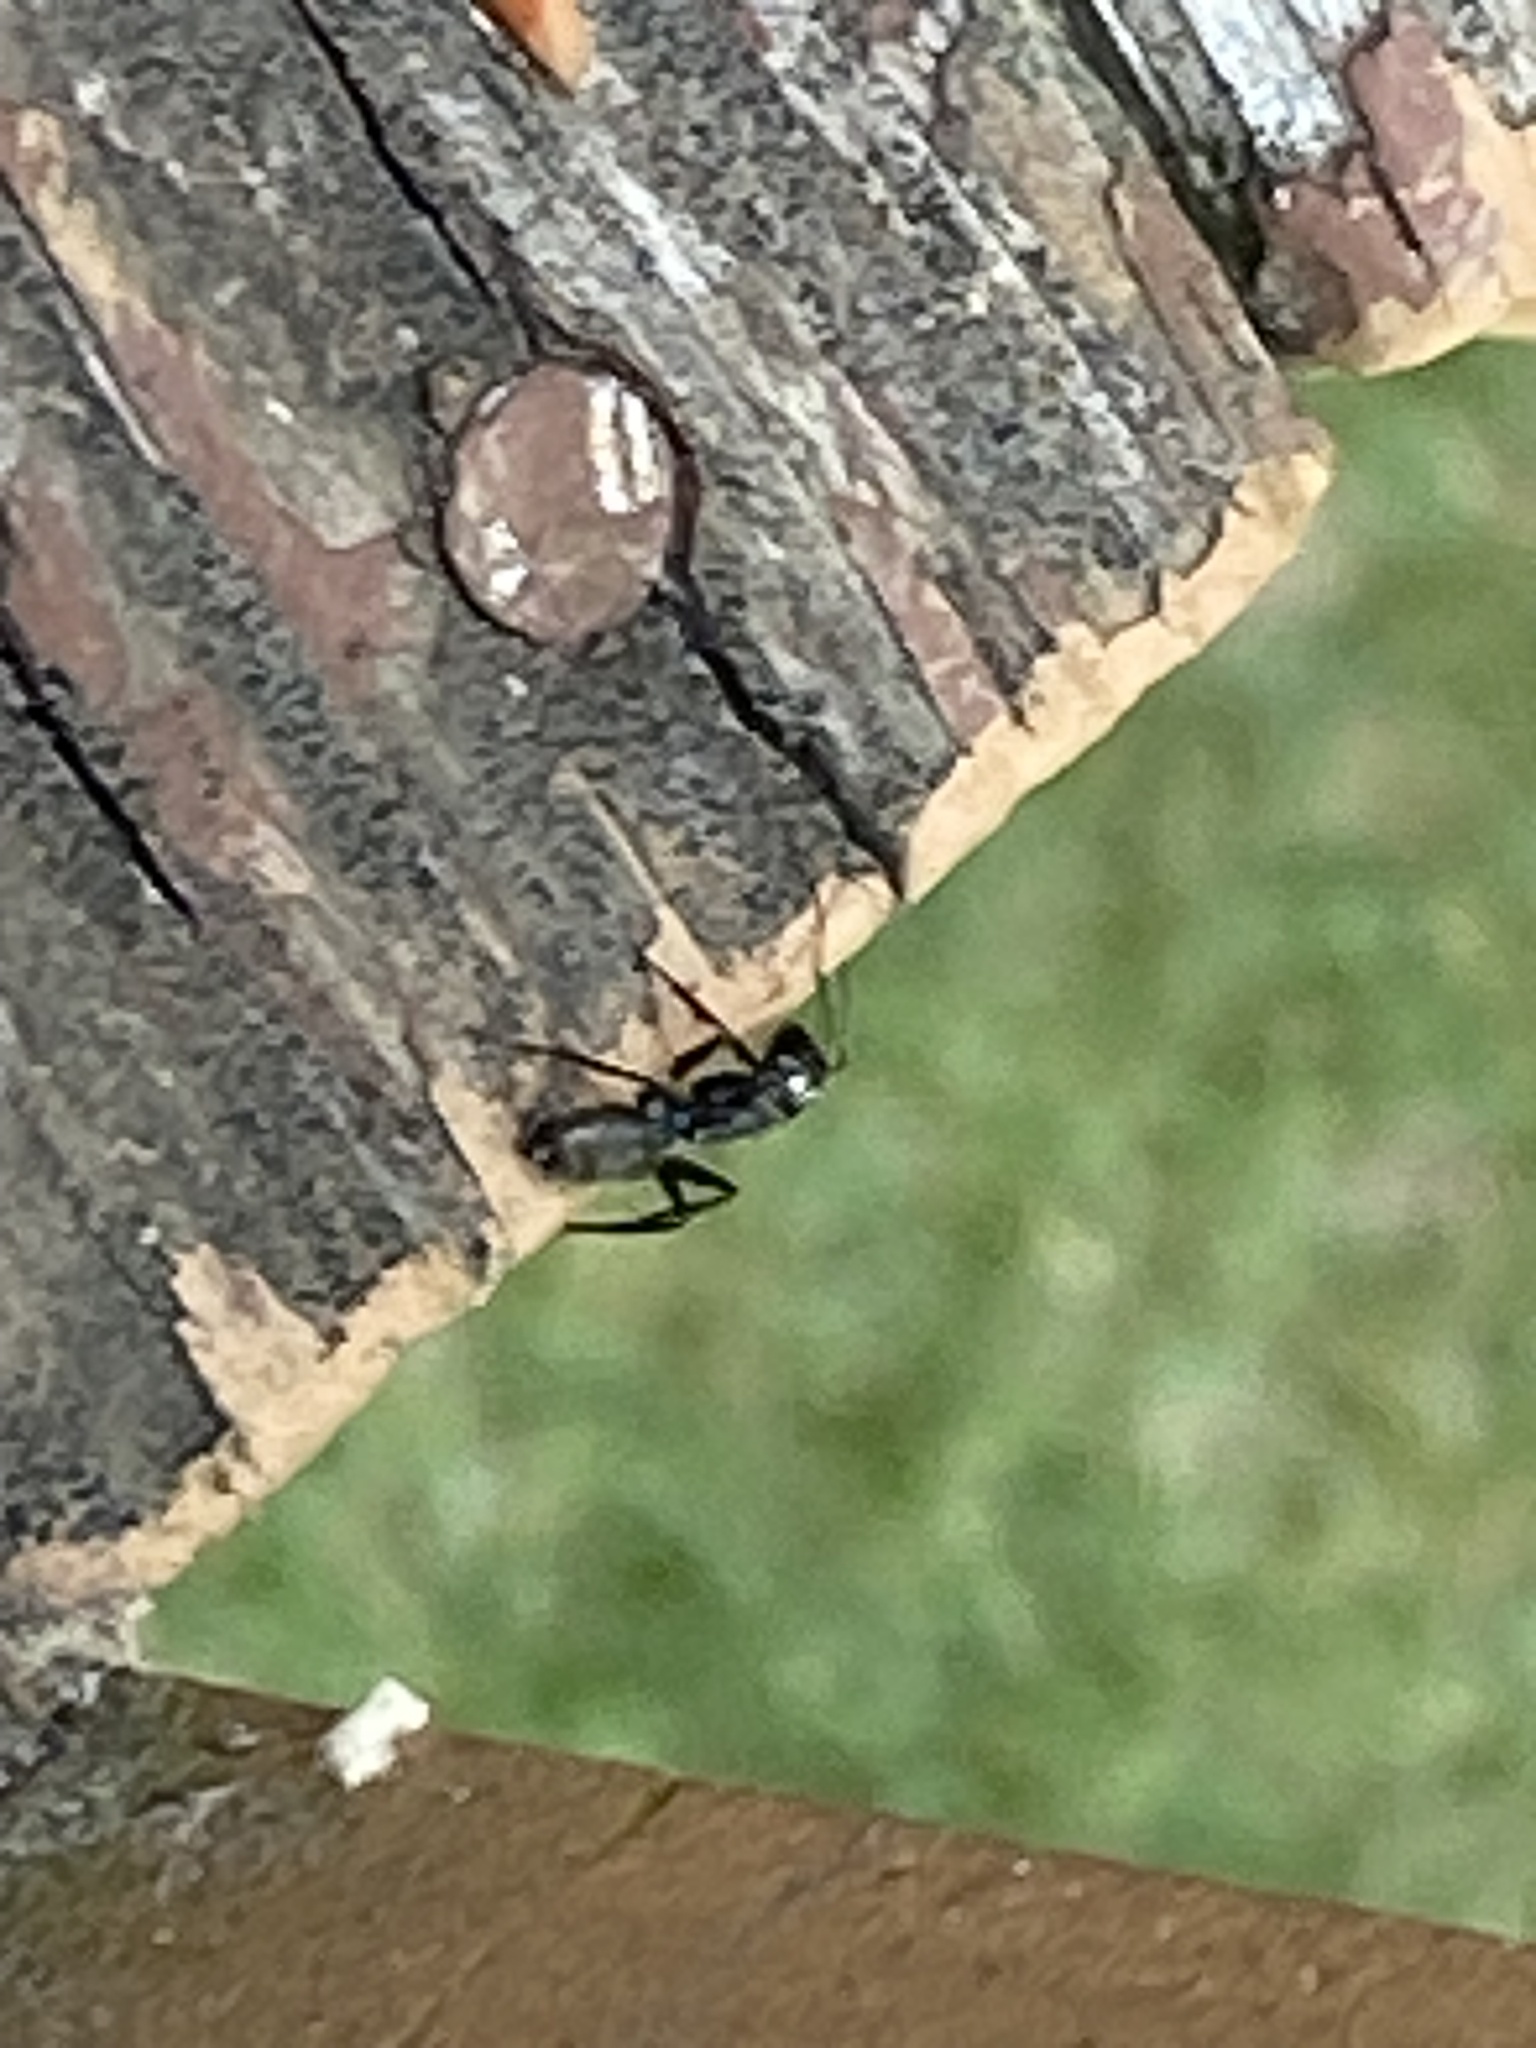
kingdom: Animalia
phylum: Arthropoda
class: Insecta
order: Hymenoptera
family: Formicidae
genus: Camponotus
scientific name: Camponotus pennsylvanicus
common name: Black carpenter ant
